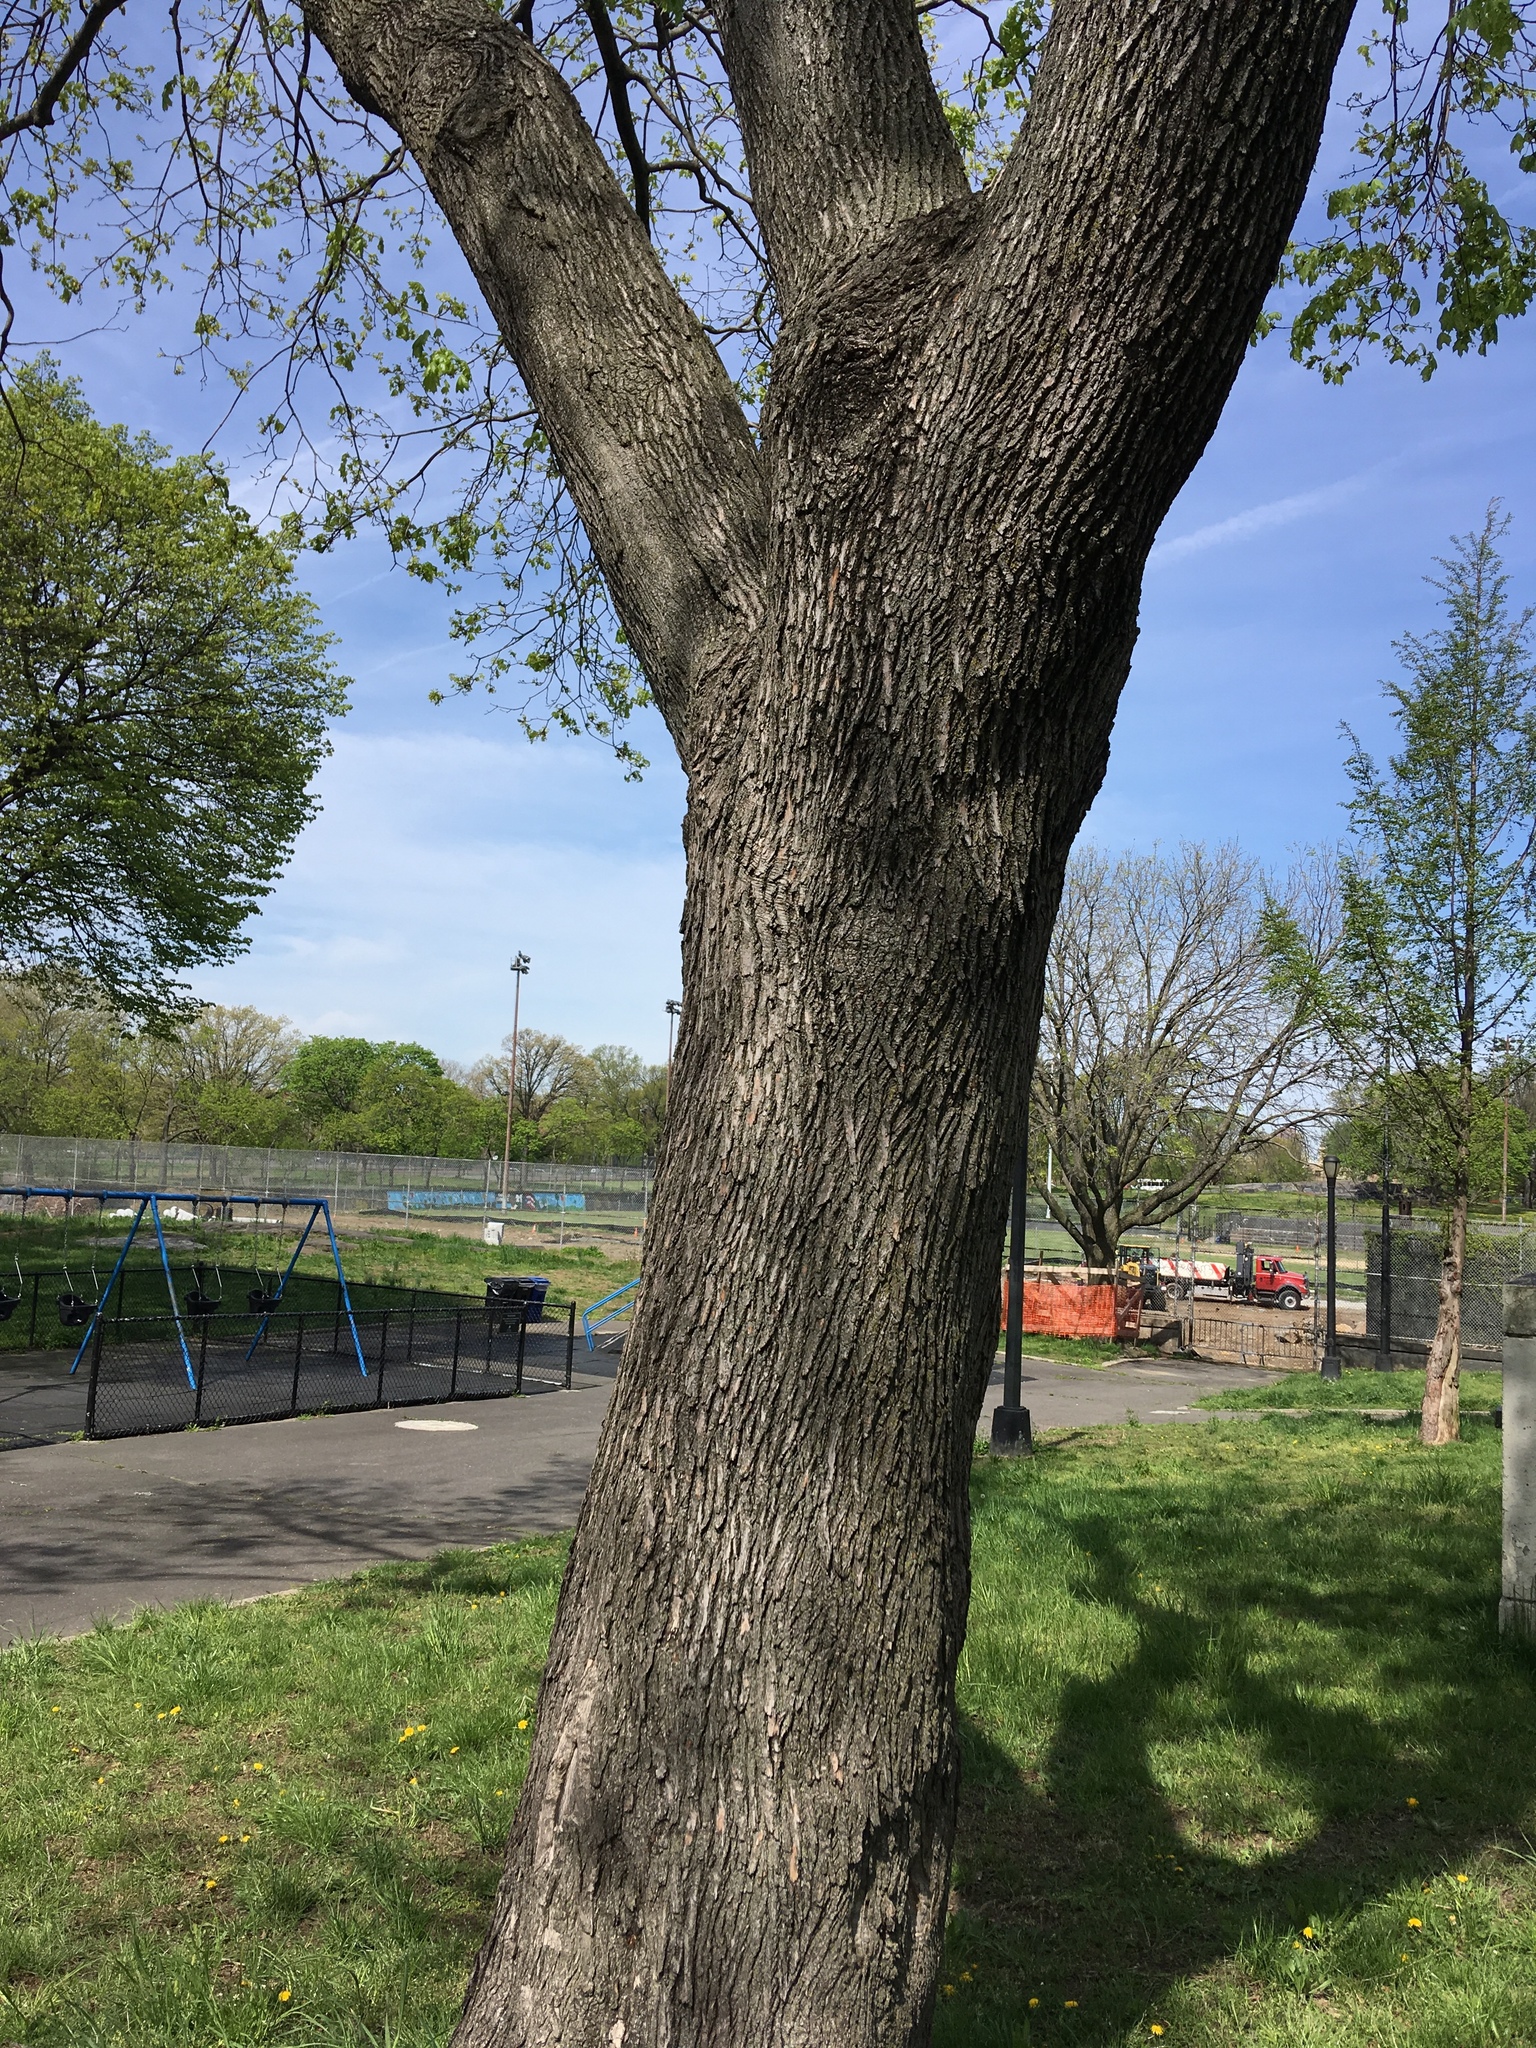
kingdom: Plantae
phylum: Tracheophyta
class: Magnoliopsida
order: Sapindales
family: Sapindaceae
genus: Acer
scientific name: Acer platanoides
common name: Norway maple
